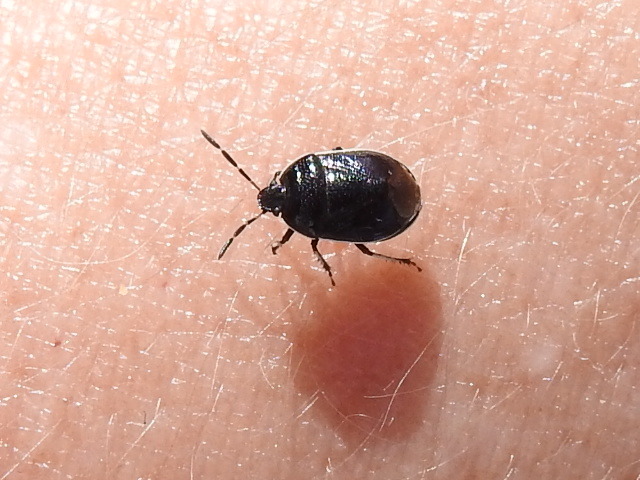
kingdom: Animalia
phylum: Arthropoda
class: Insecta
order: Hemiptera
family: Cydnidae
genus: Sehirus
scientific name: Sehirus cinctus
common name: White-margined burrower bug
